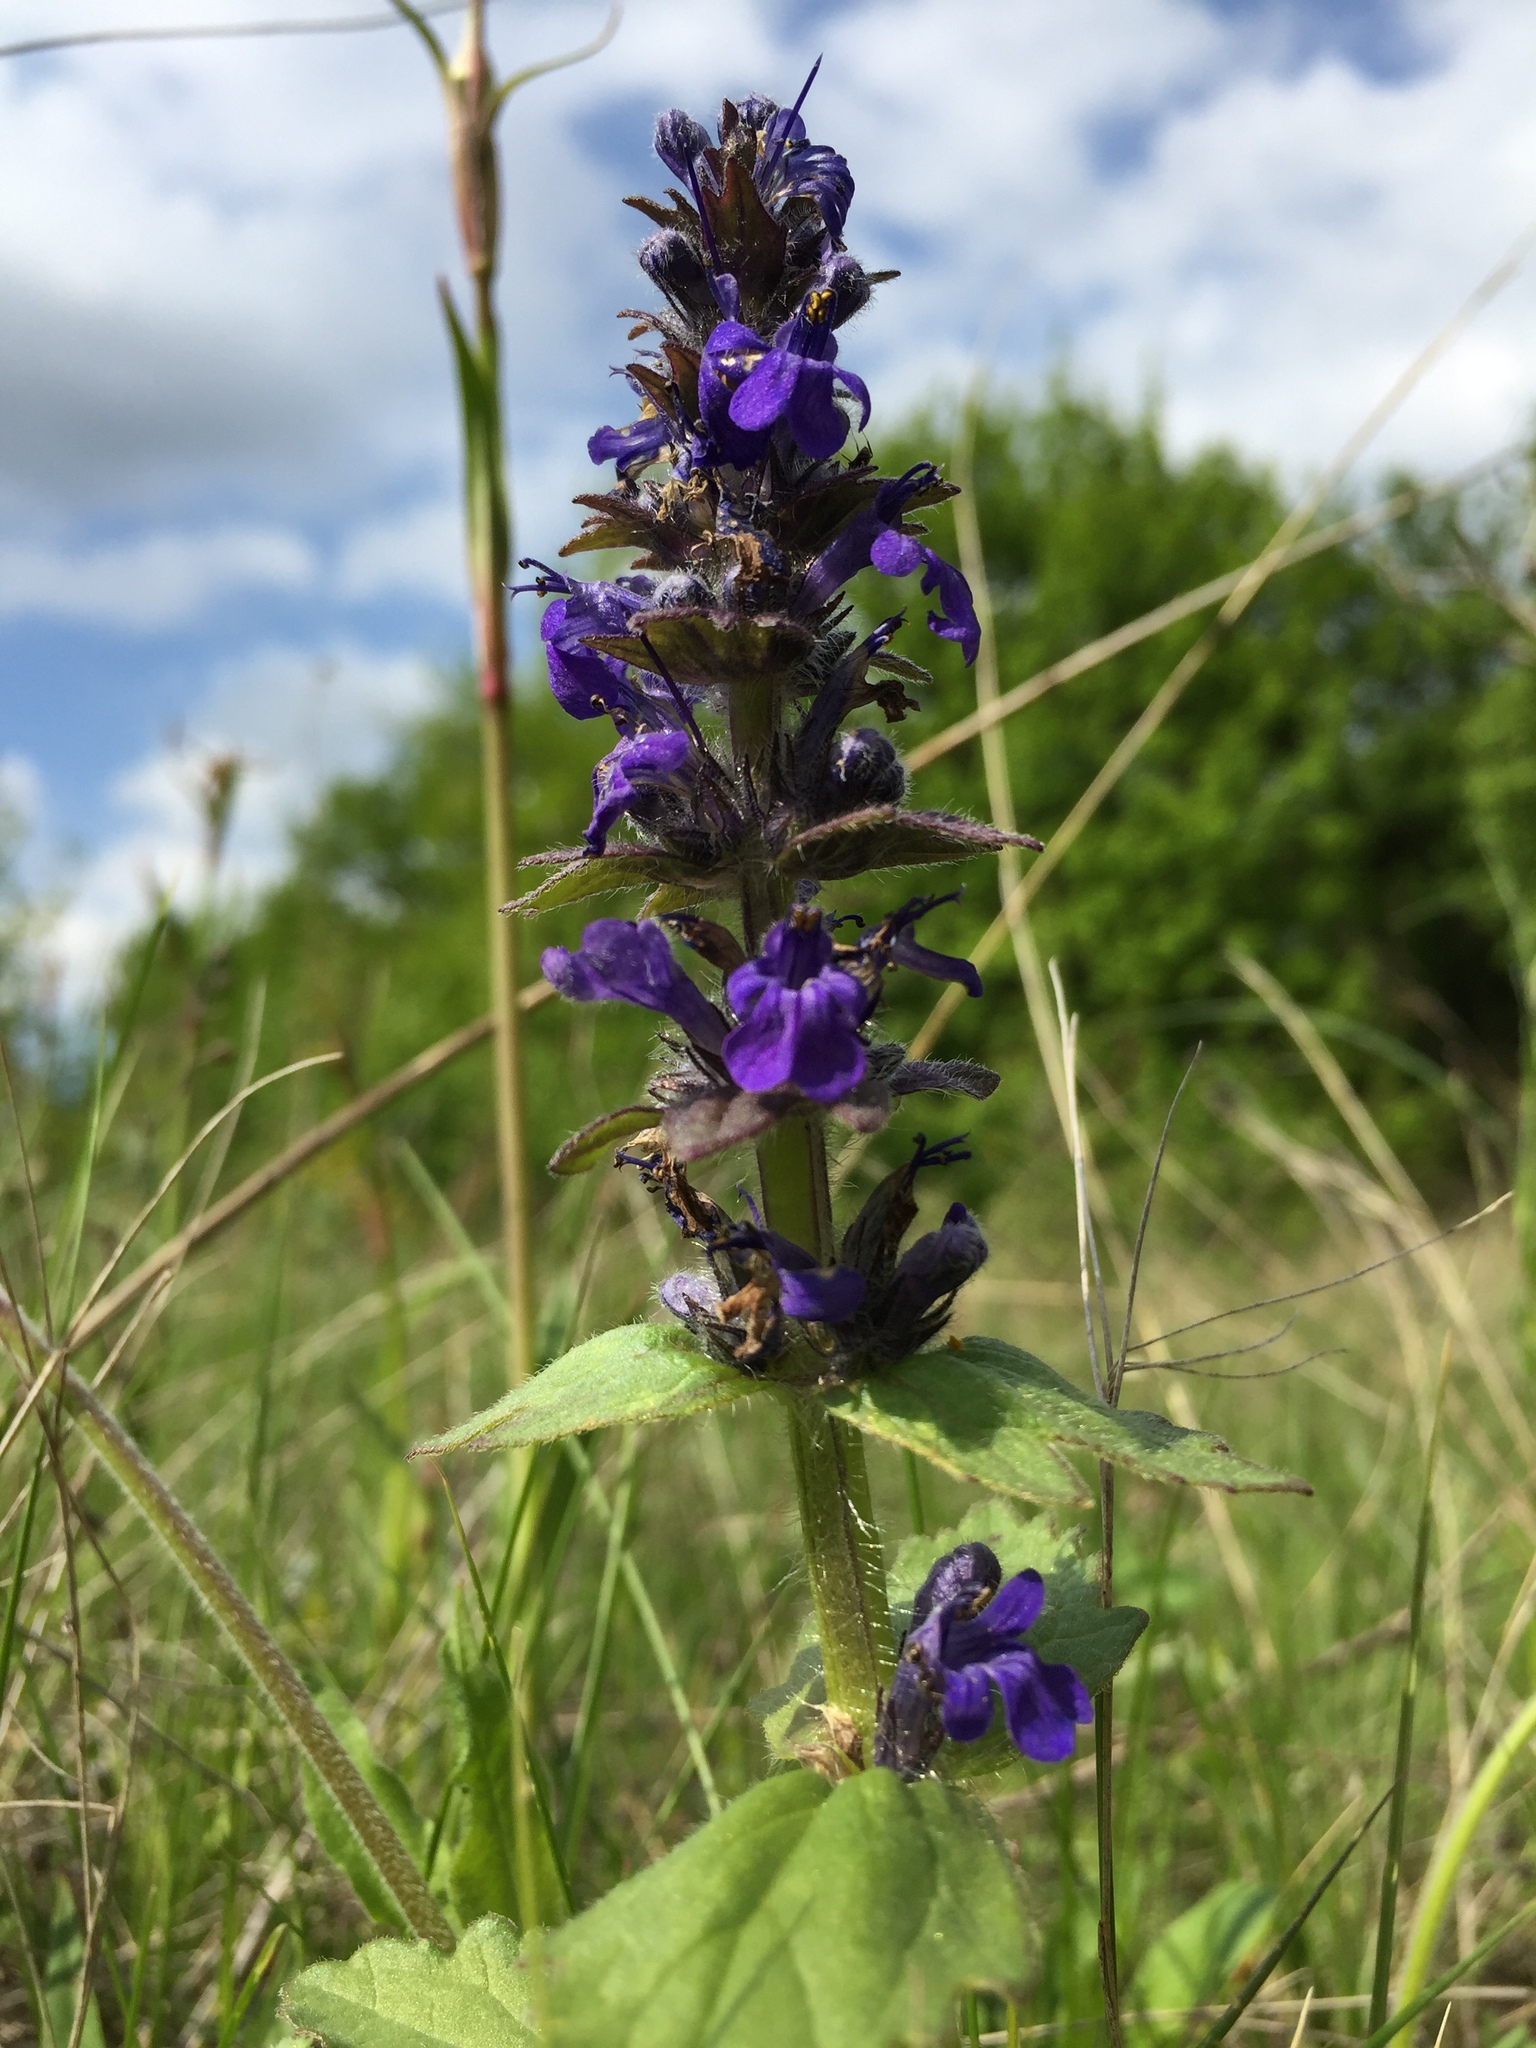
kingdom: Plantae
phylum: Tracheophyta
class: Magnoliopsida
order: Lamiales
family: Lamiaceae
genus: Ajuga
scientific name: Ajuga genevensis
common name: Blue bugle
